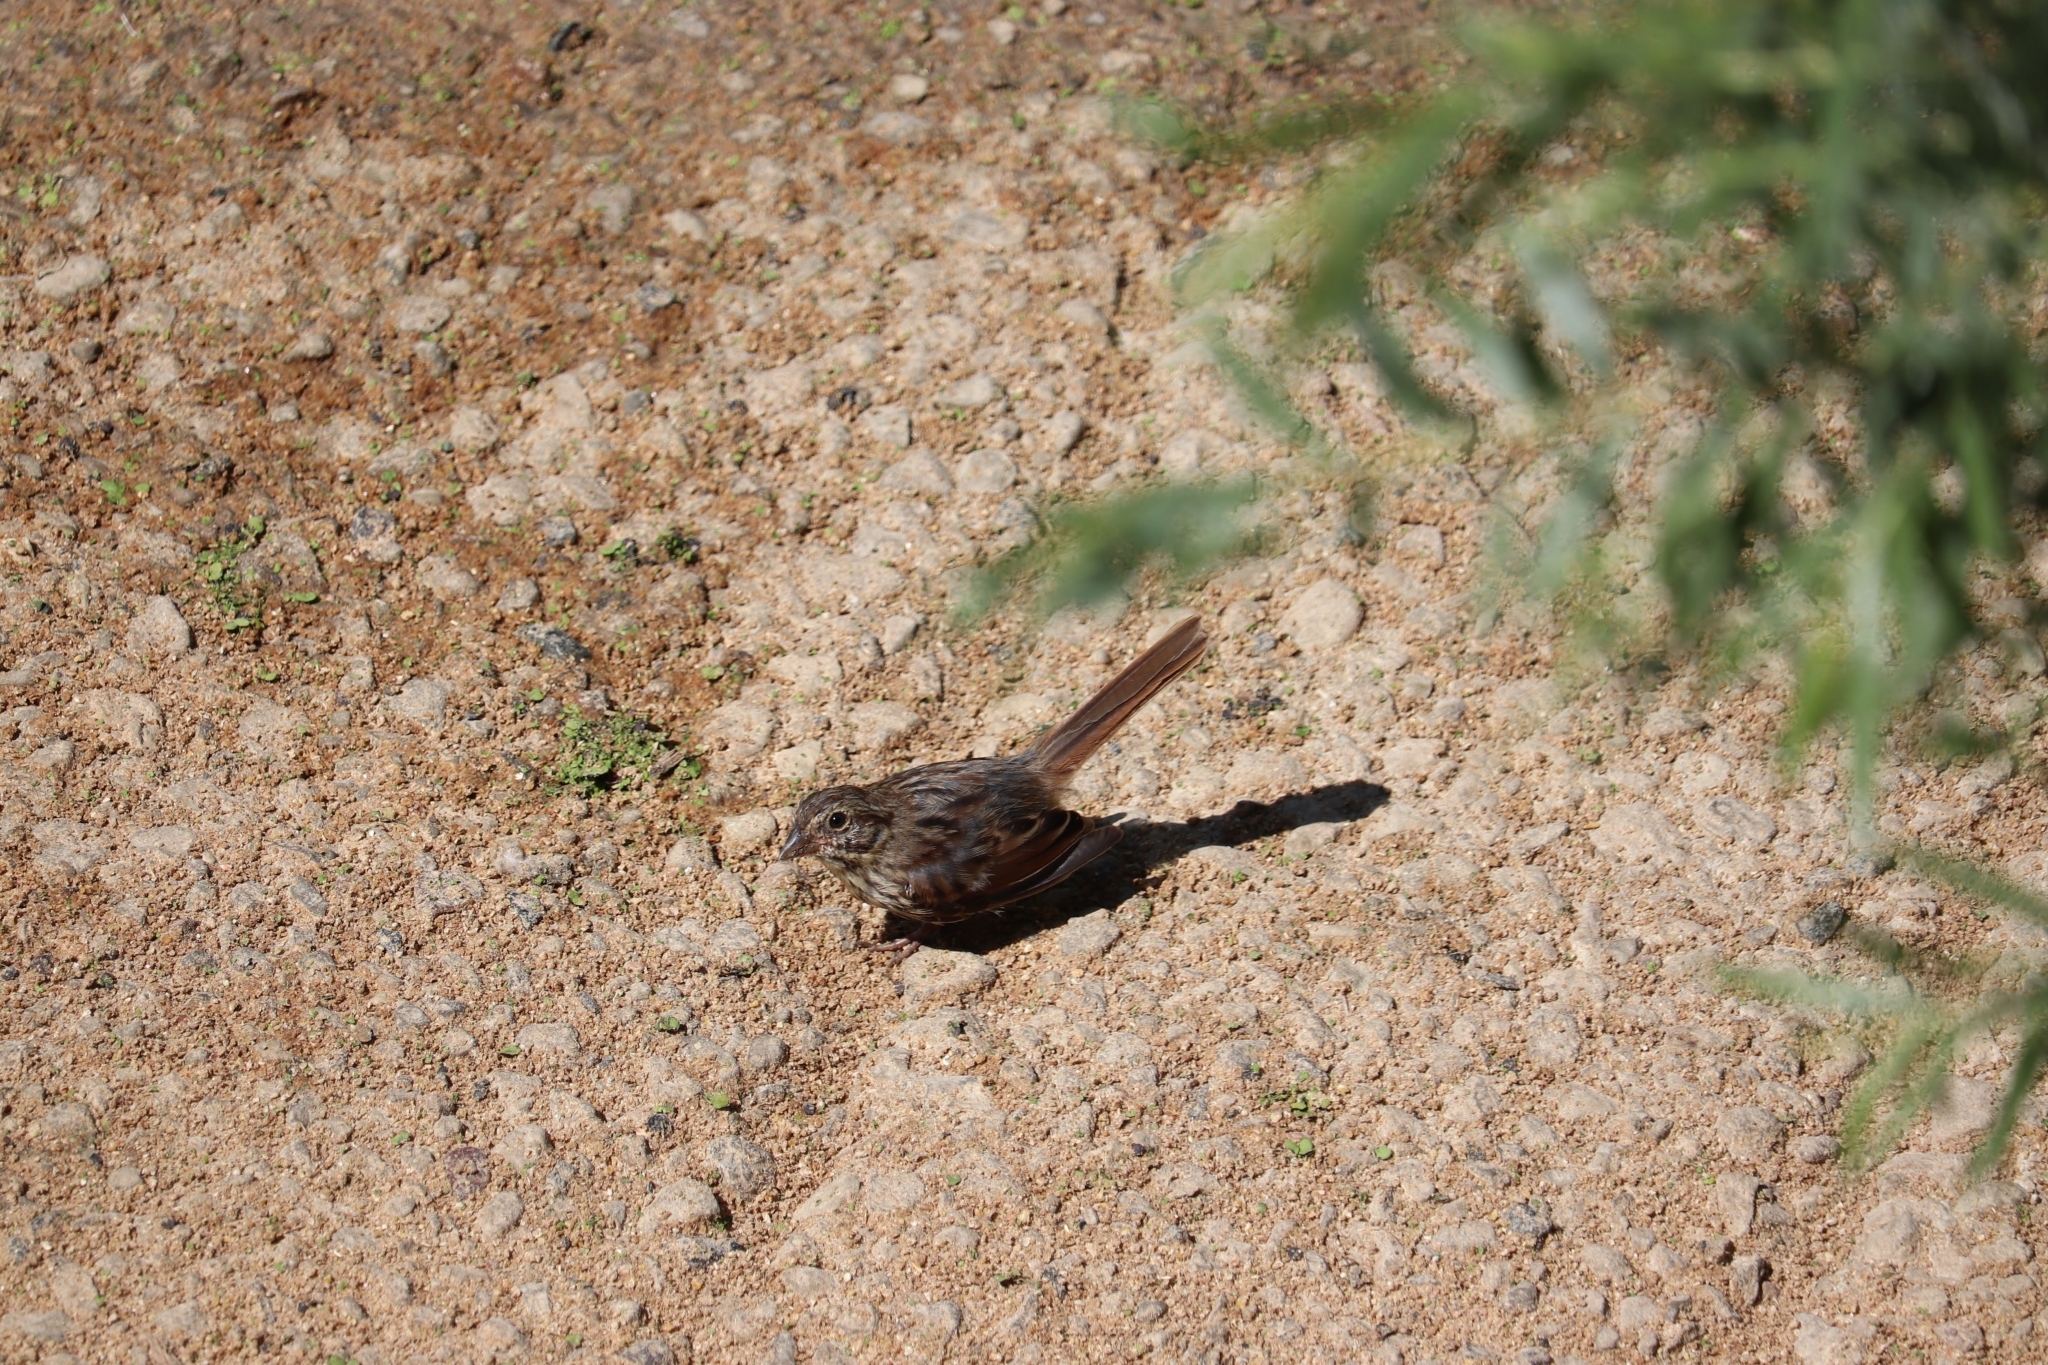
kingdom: Animalia
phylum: Chordata
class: Aves
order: Passeriformes
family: Passerellidae
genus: Melospiza
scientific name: Melospiza melodia
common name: Song sparrow
